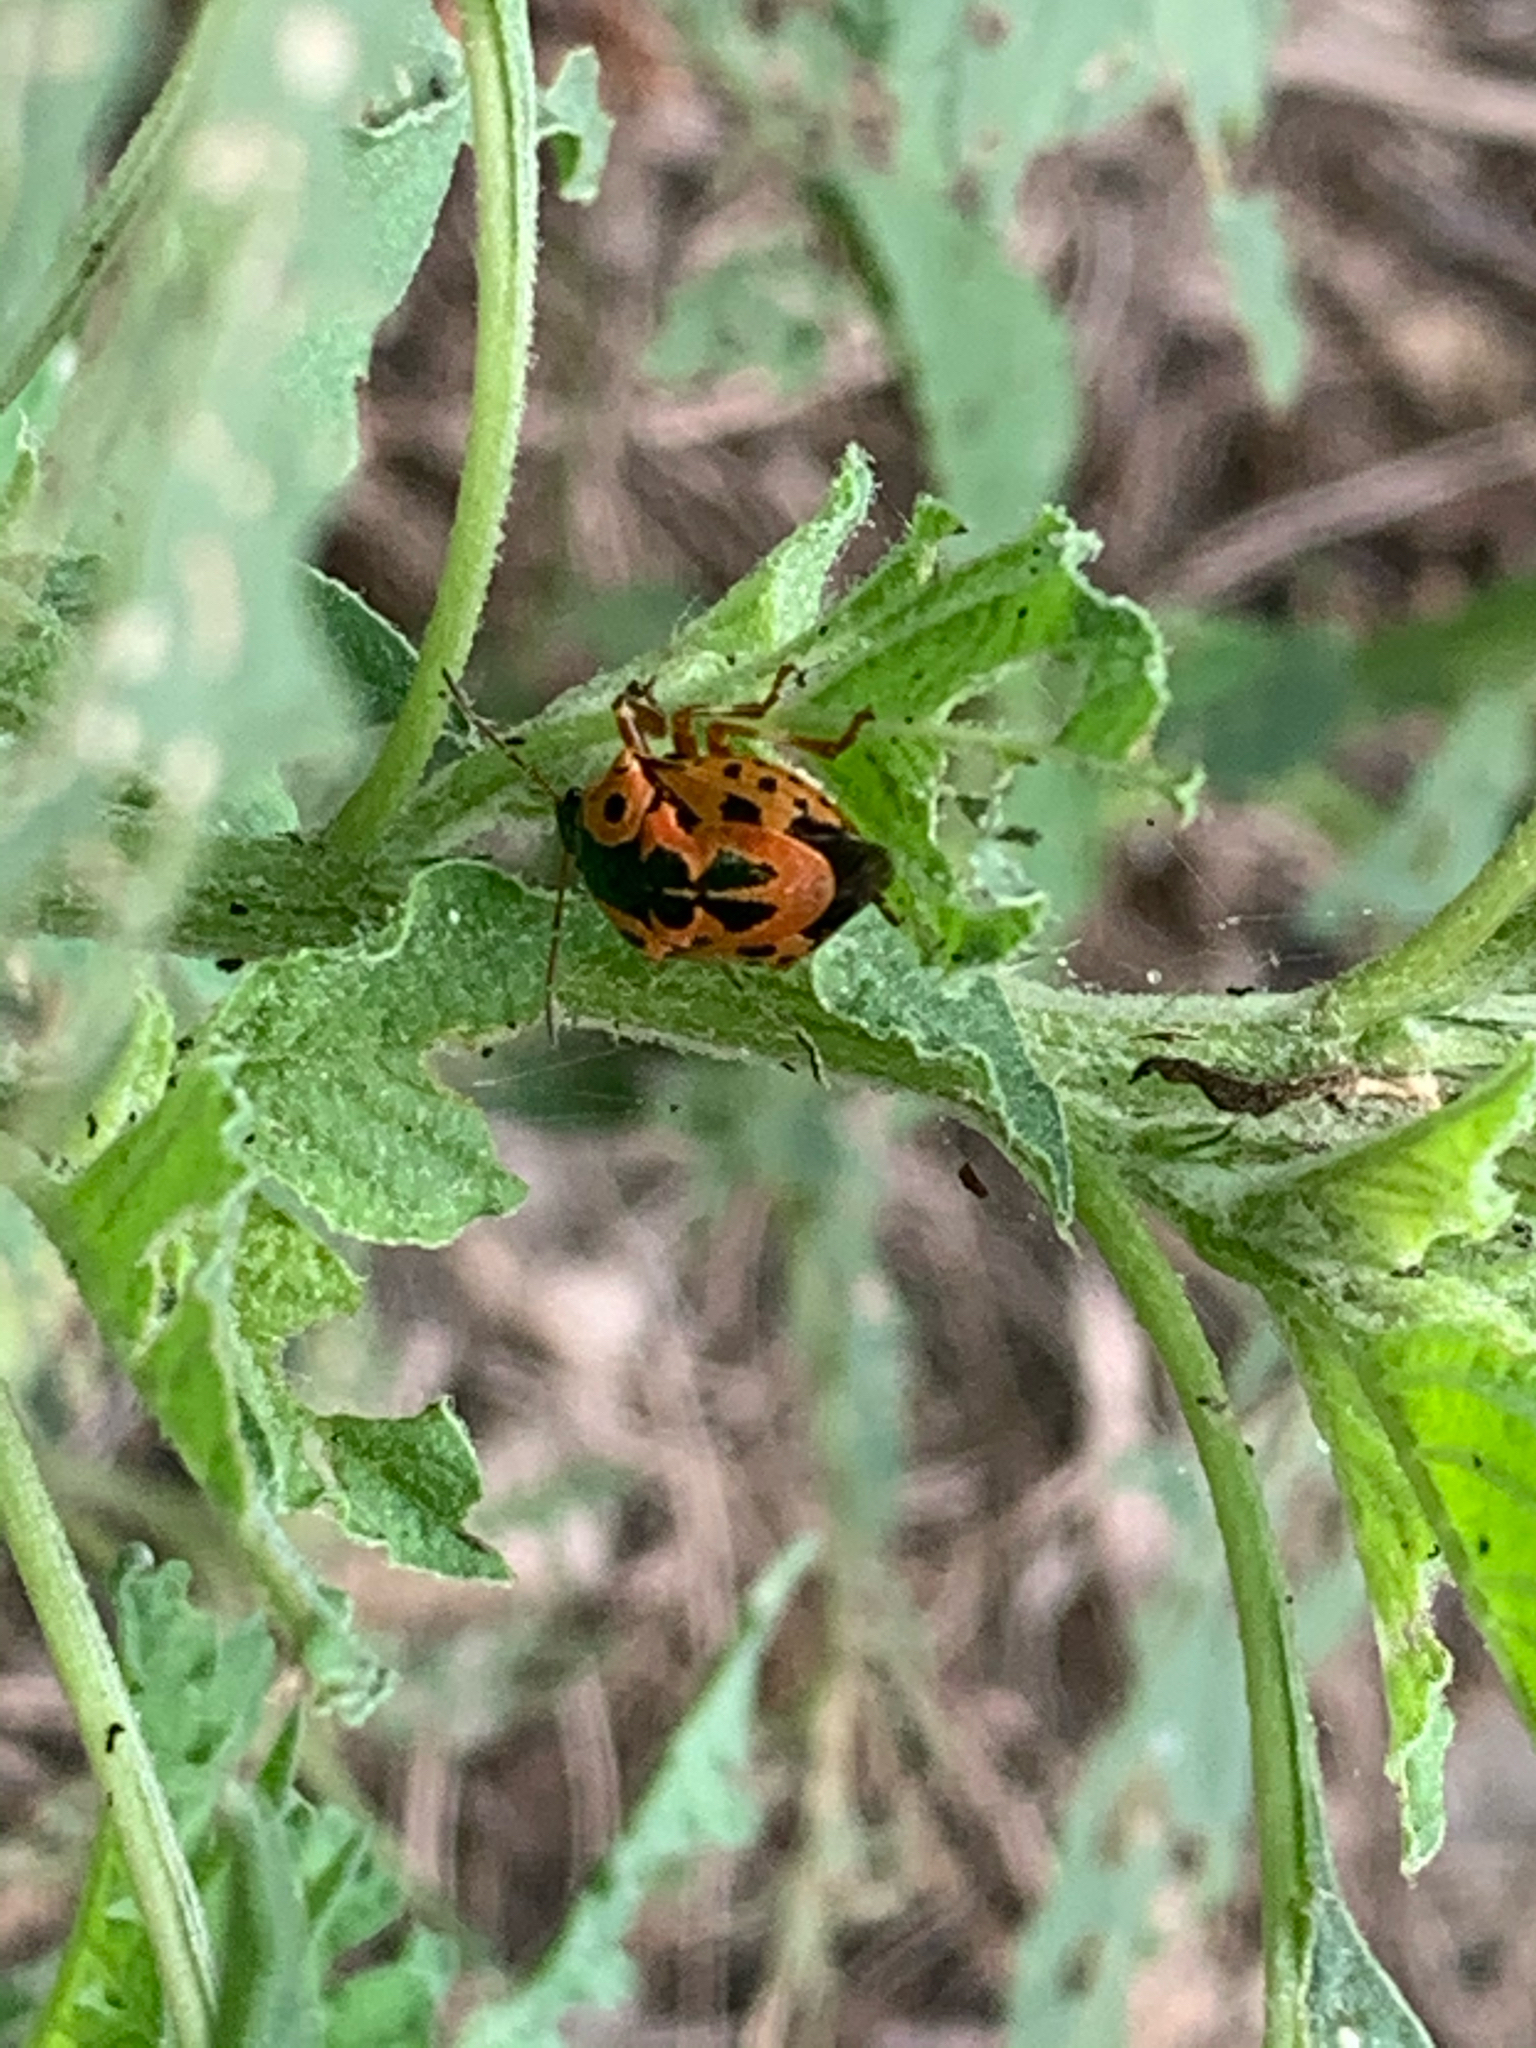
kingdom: Animalia
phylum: Arthropoda
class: Insecta
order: Hemiptera
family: Pentatomidae
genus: Stiretrus
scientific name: Stiretrus anchorago
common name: Anchor stink bug
